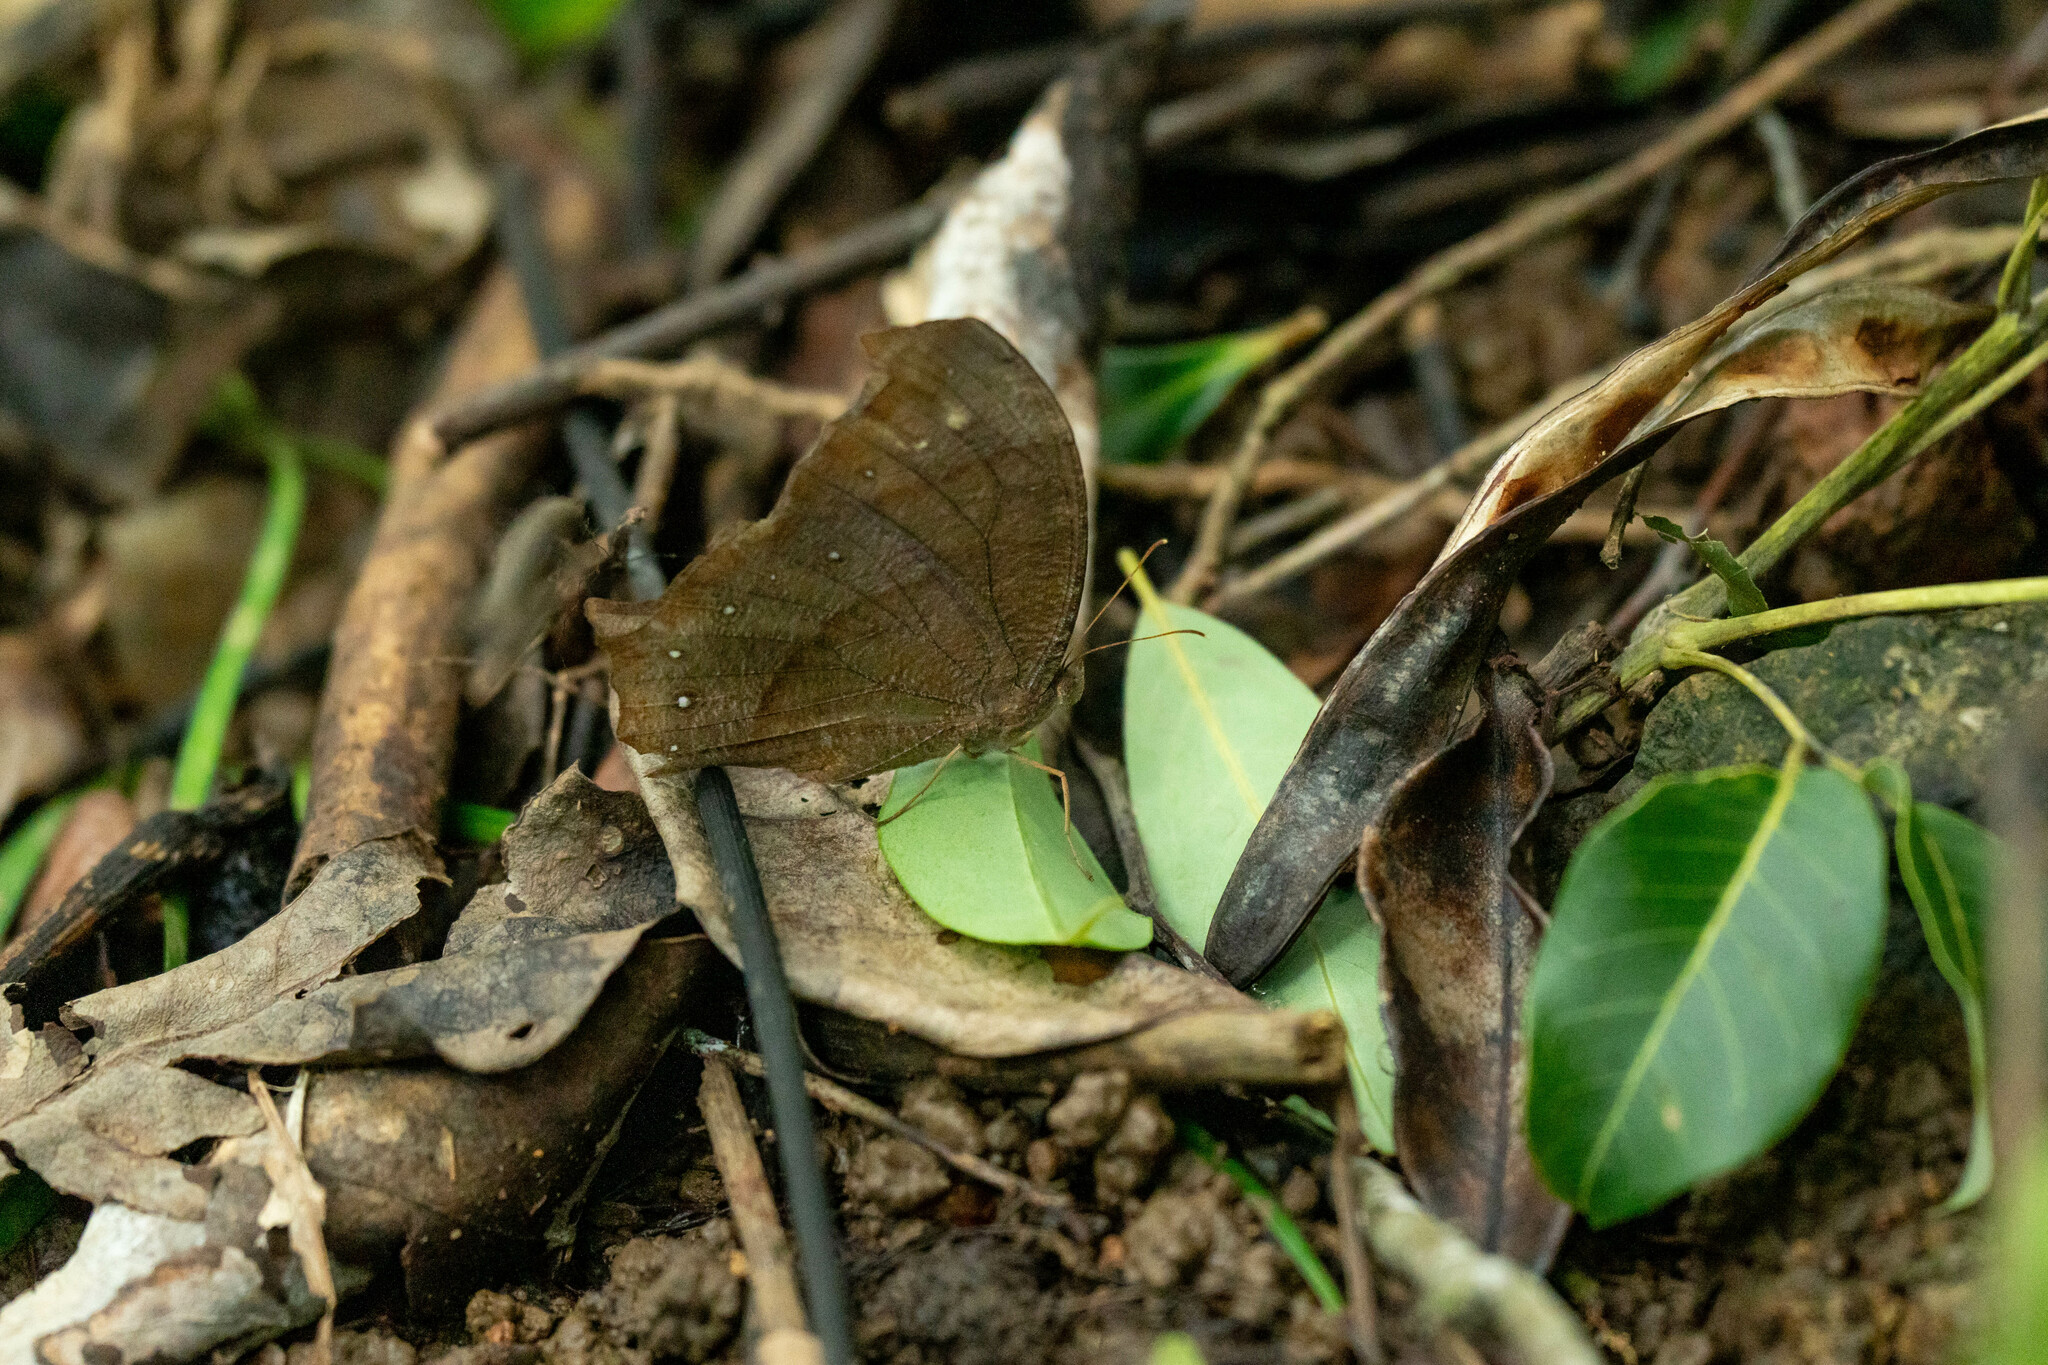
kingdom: Animalia
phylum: Arthropoda
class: Insecta
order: Lepidoptera
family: Nymphalidae
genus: Melanitis
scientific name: Melanitis phedima
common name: Dark evening brown
